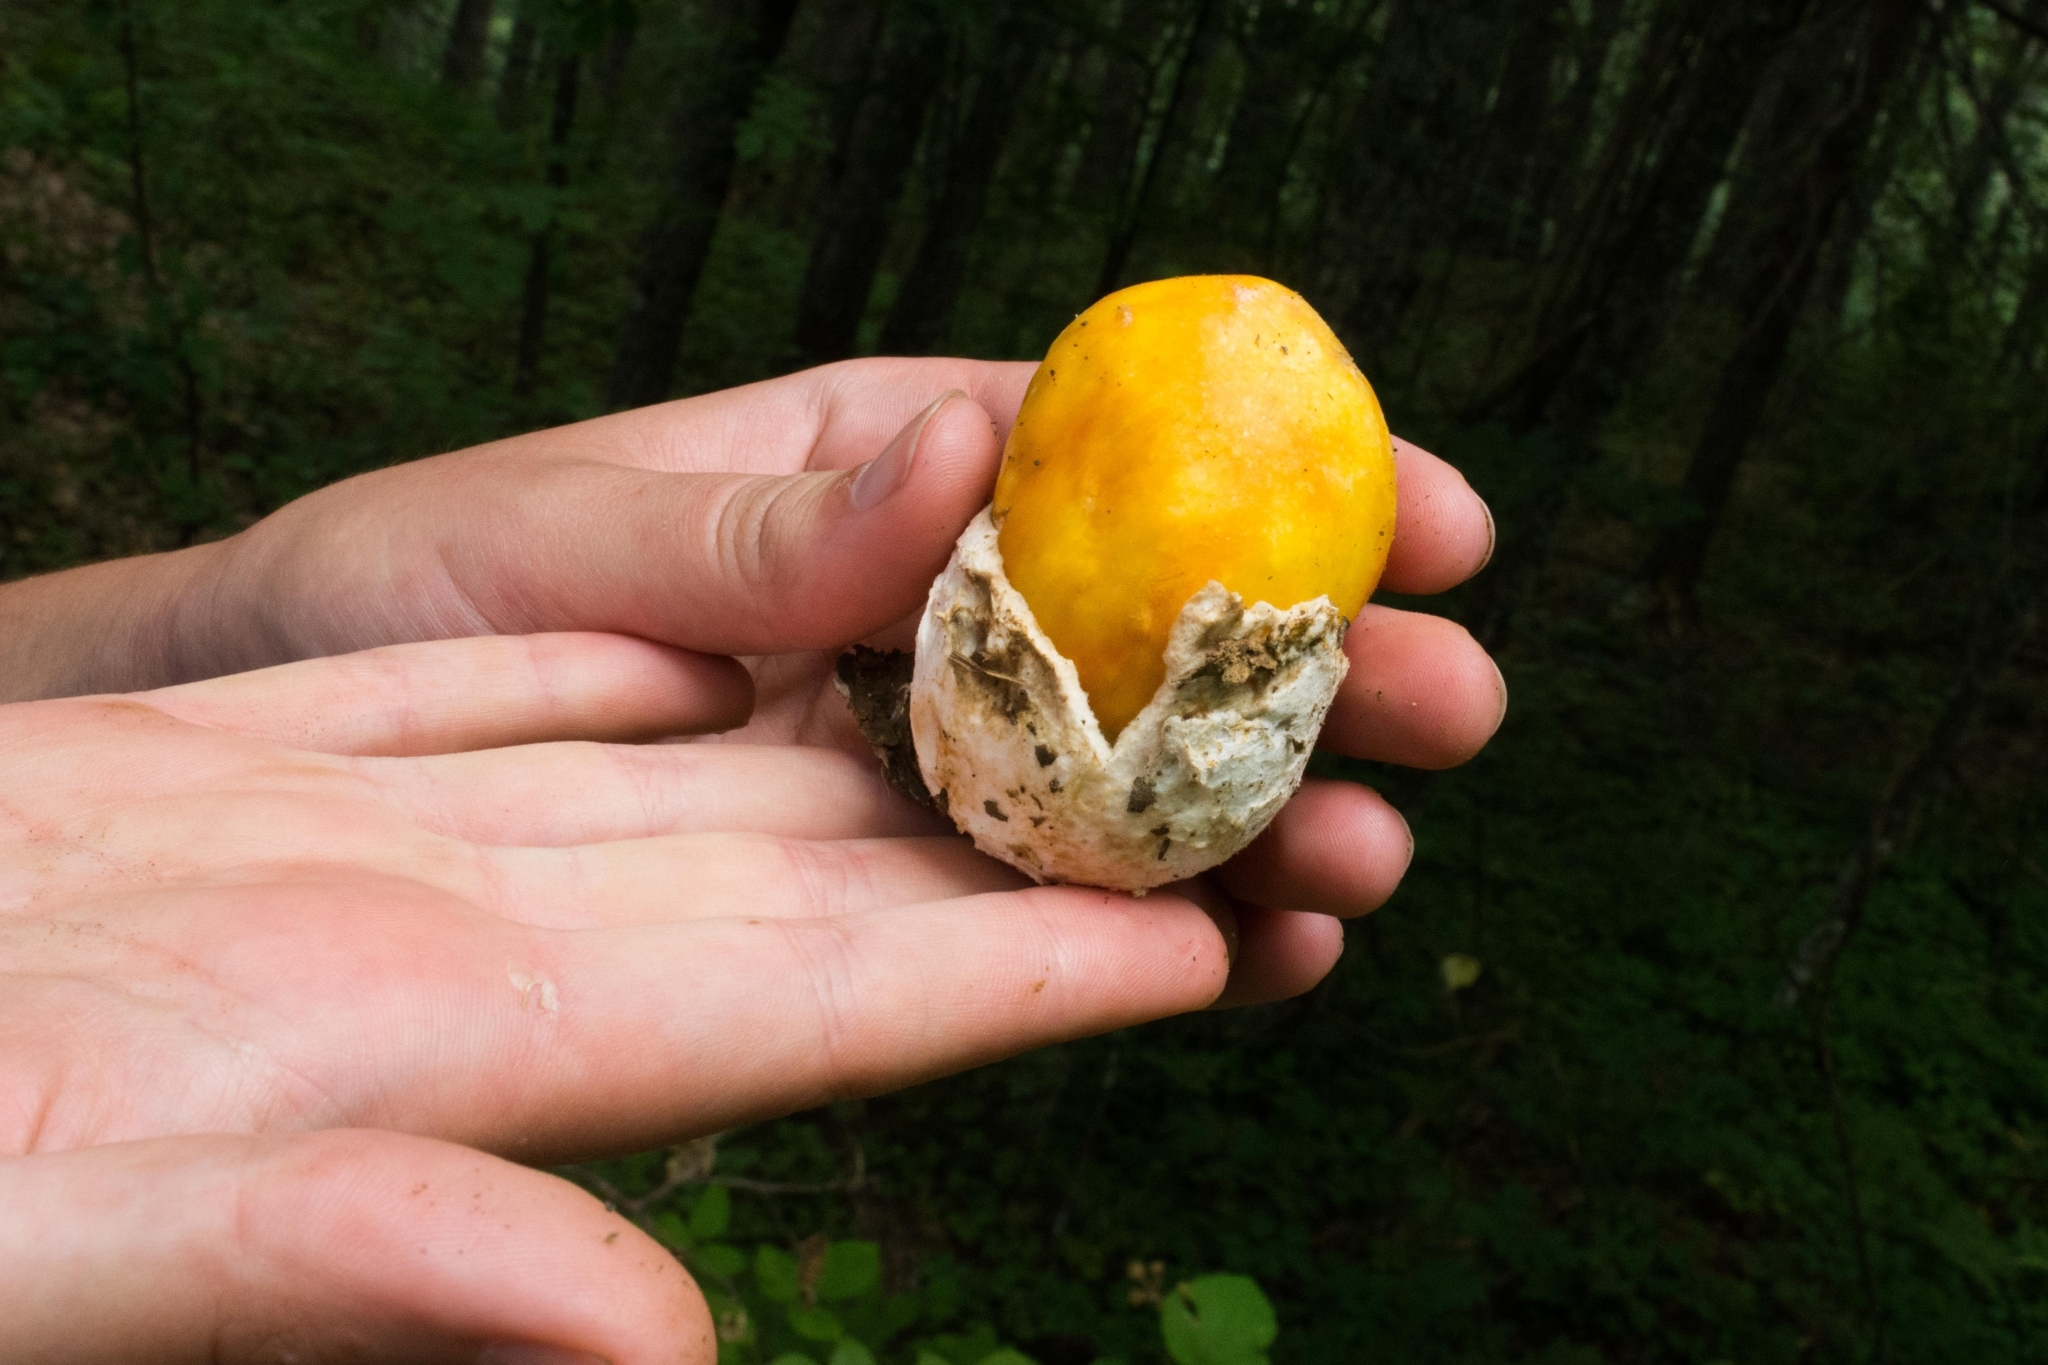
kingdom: Fungi
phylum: Basidiomycota
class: Agaricomycetes
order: Agaricales
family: Amanitaceae
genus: Amanita
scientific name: Amanita caesarea
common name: Caesar's amanita
